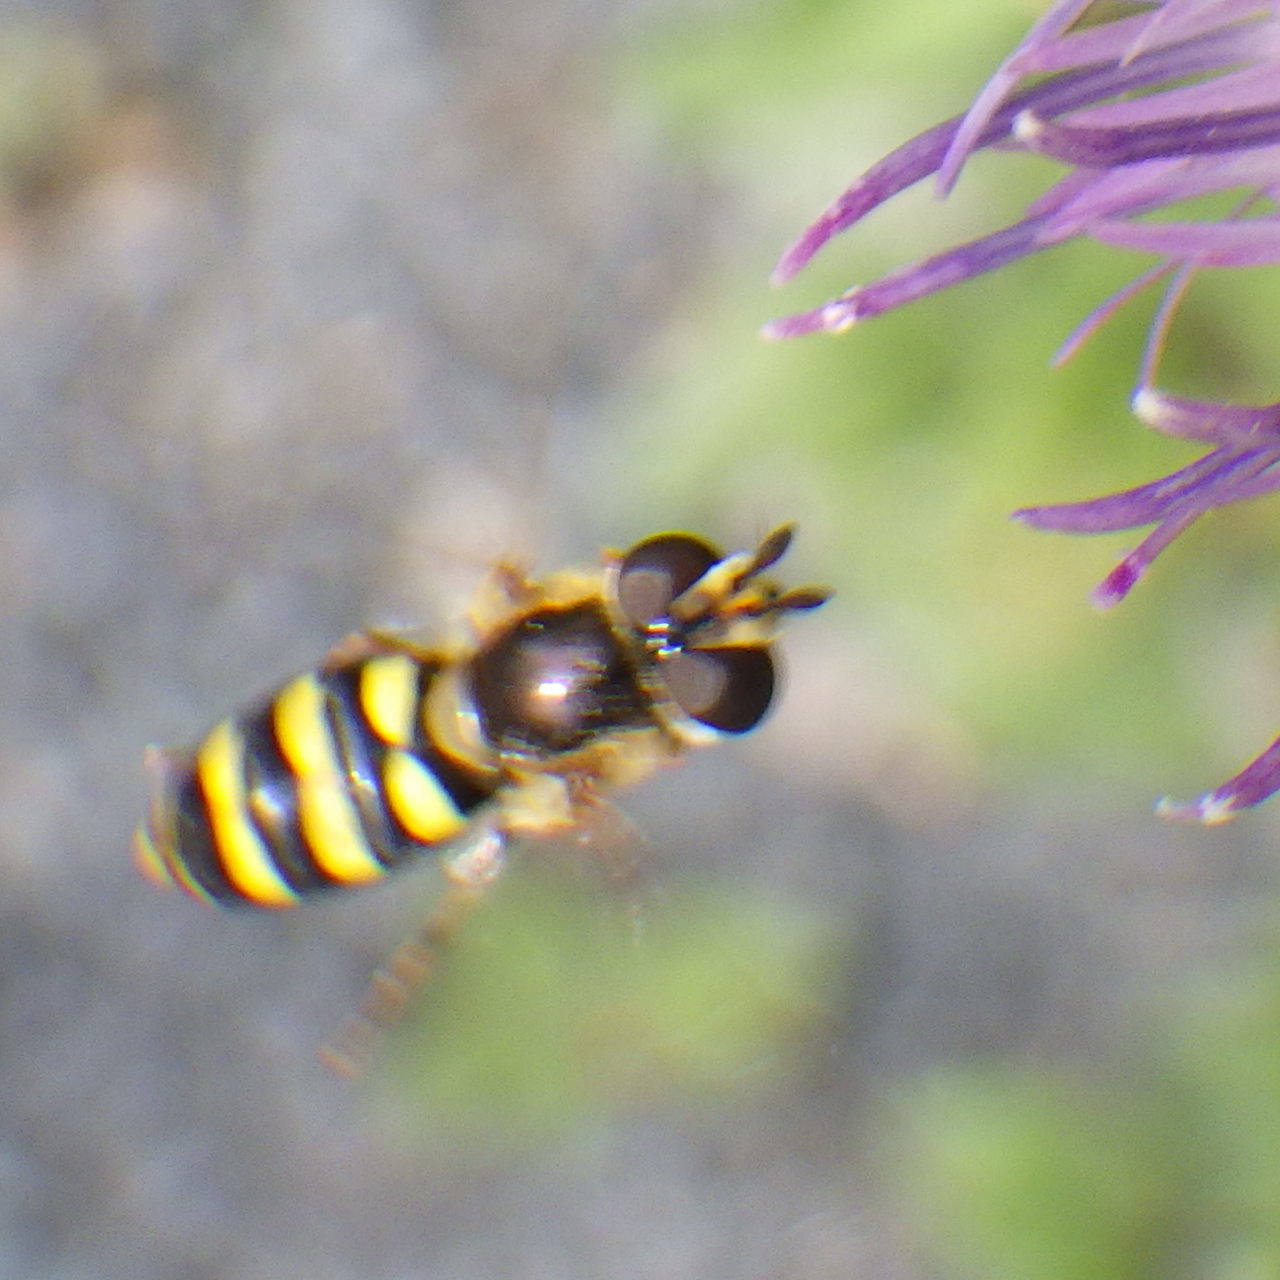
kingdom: Animalia
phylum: Arthropoda
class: Insecta
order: Diptera
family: Syrphidae
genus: Eupeodes
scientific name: Eupeodes
